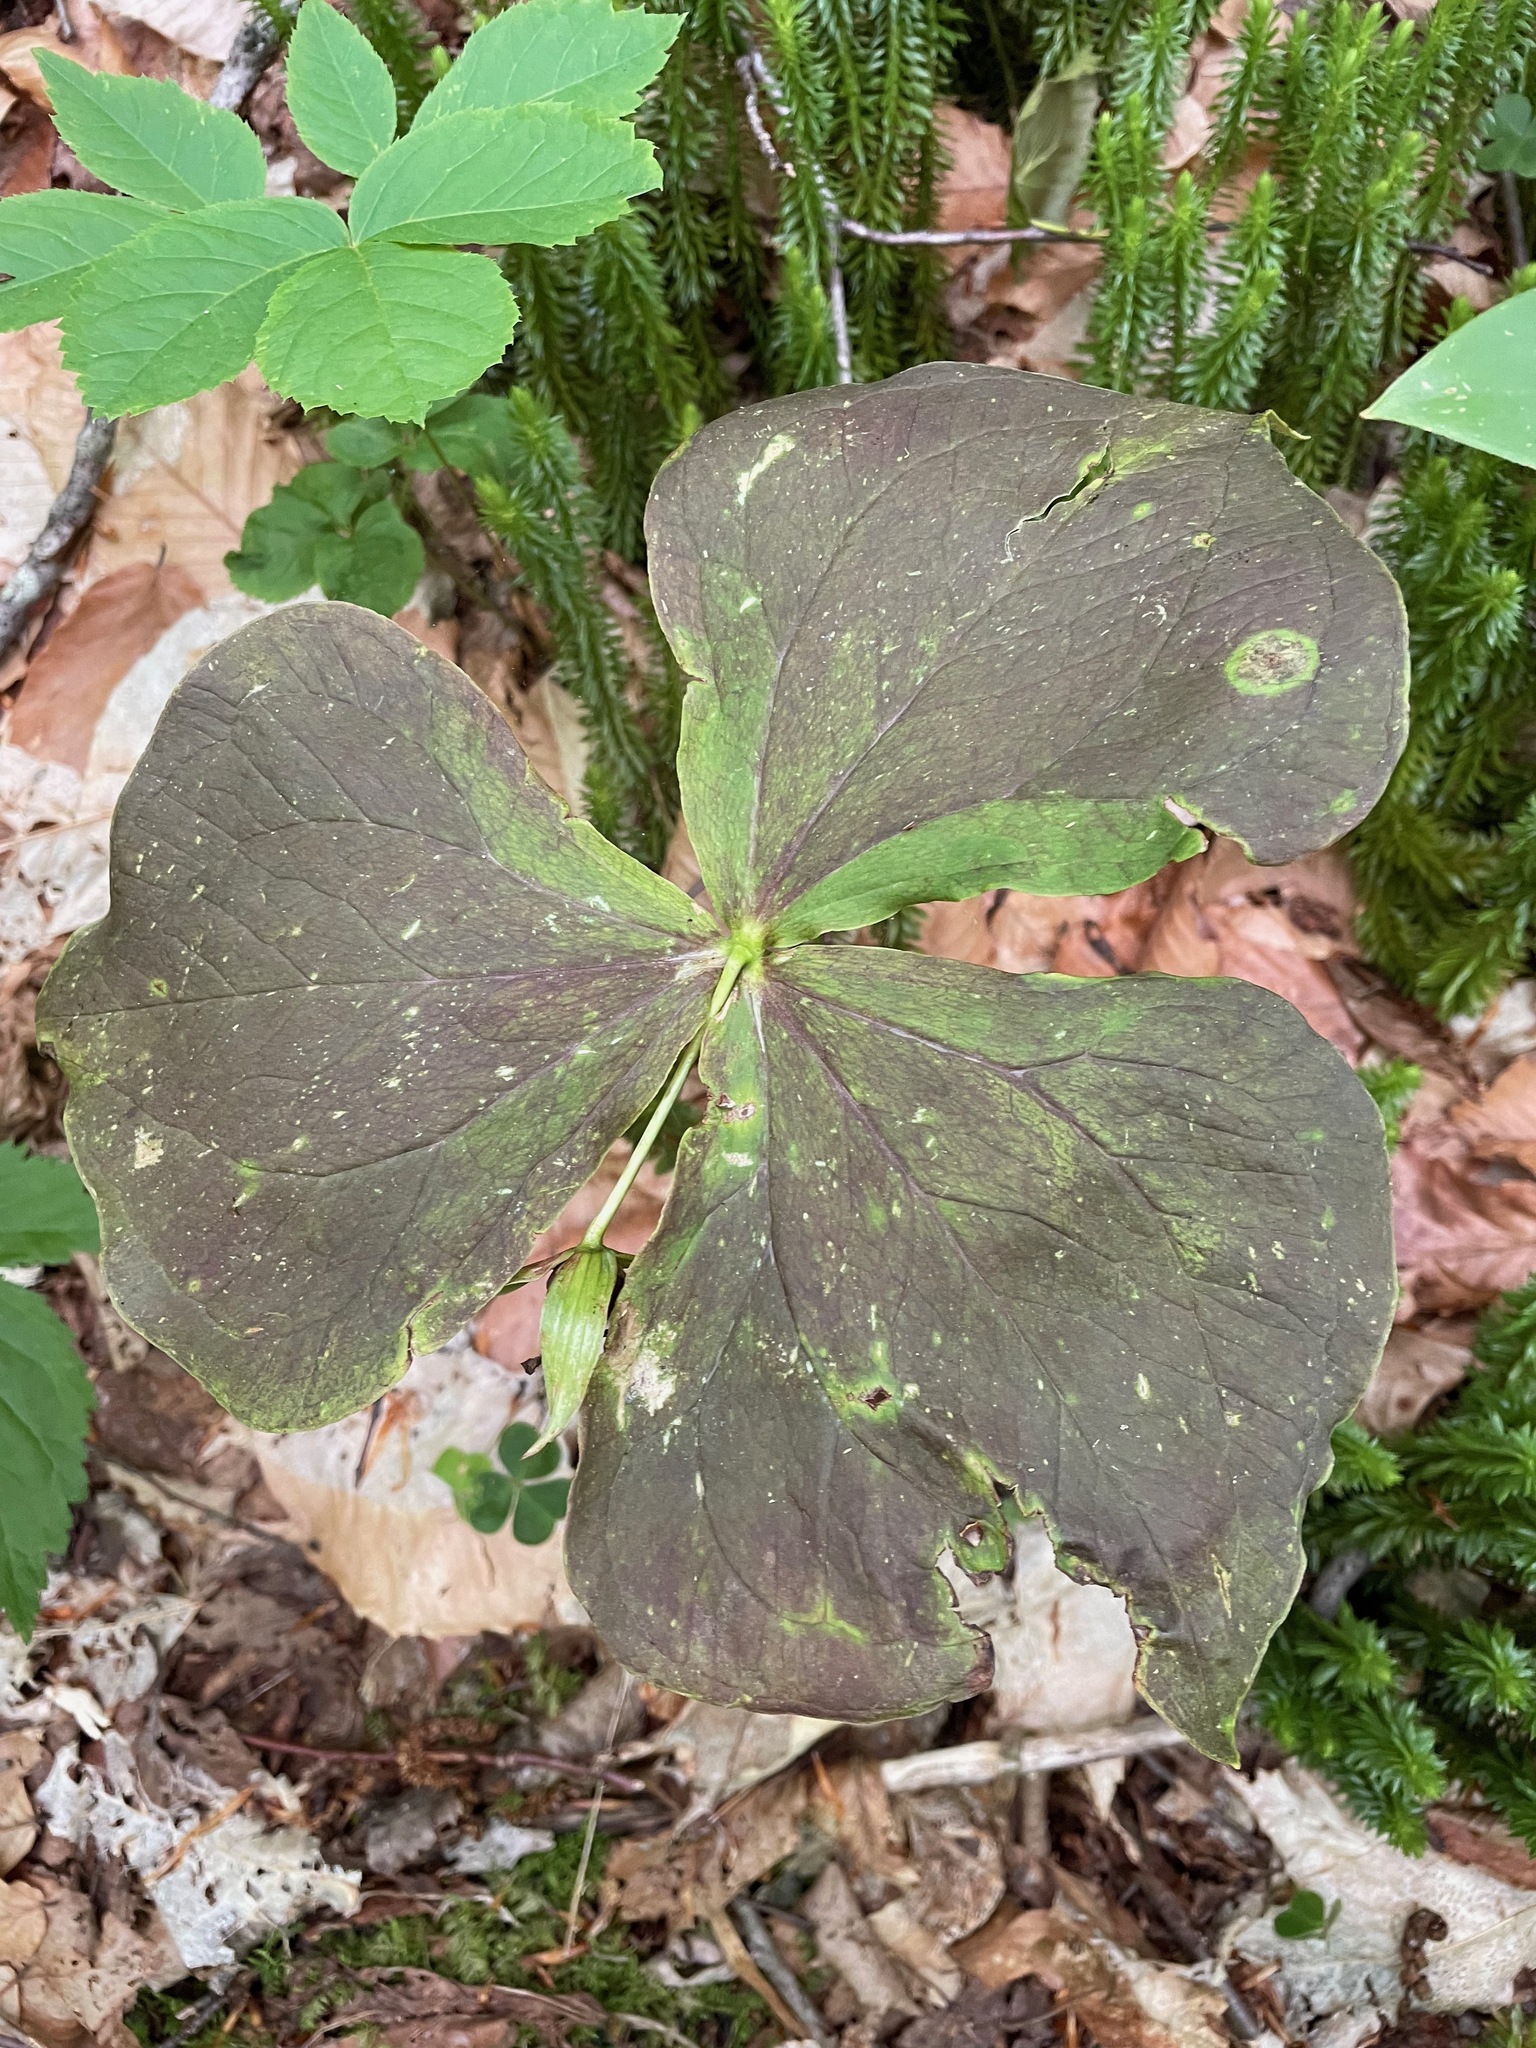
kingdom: Plantae
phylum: Tracheophyta
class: Liliopsida
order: Liliales
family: Melanthiaceae
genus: Trillium
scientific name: Trillium erectum
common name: Purple trillium
